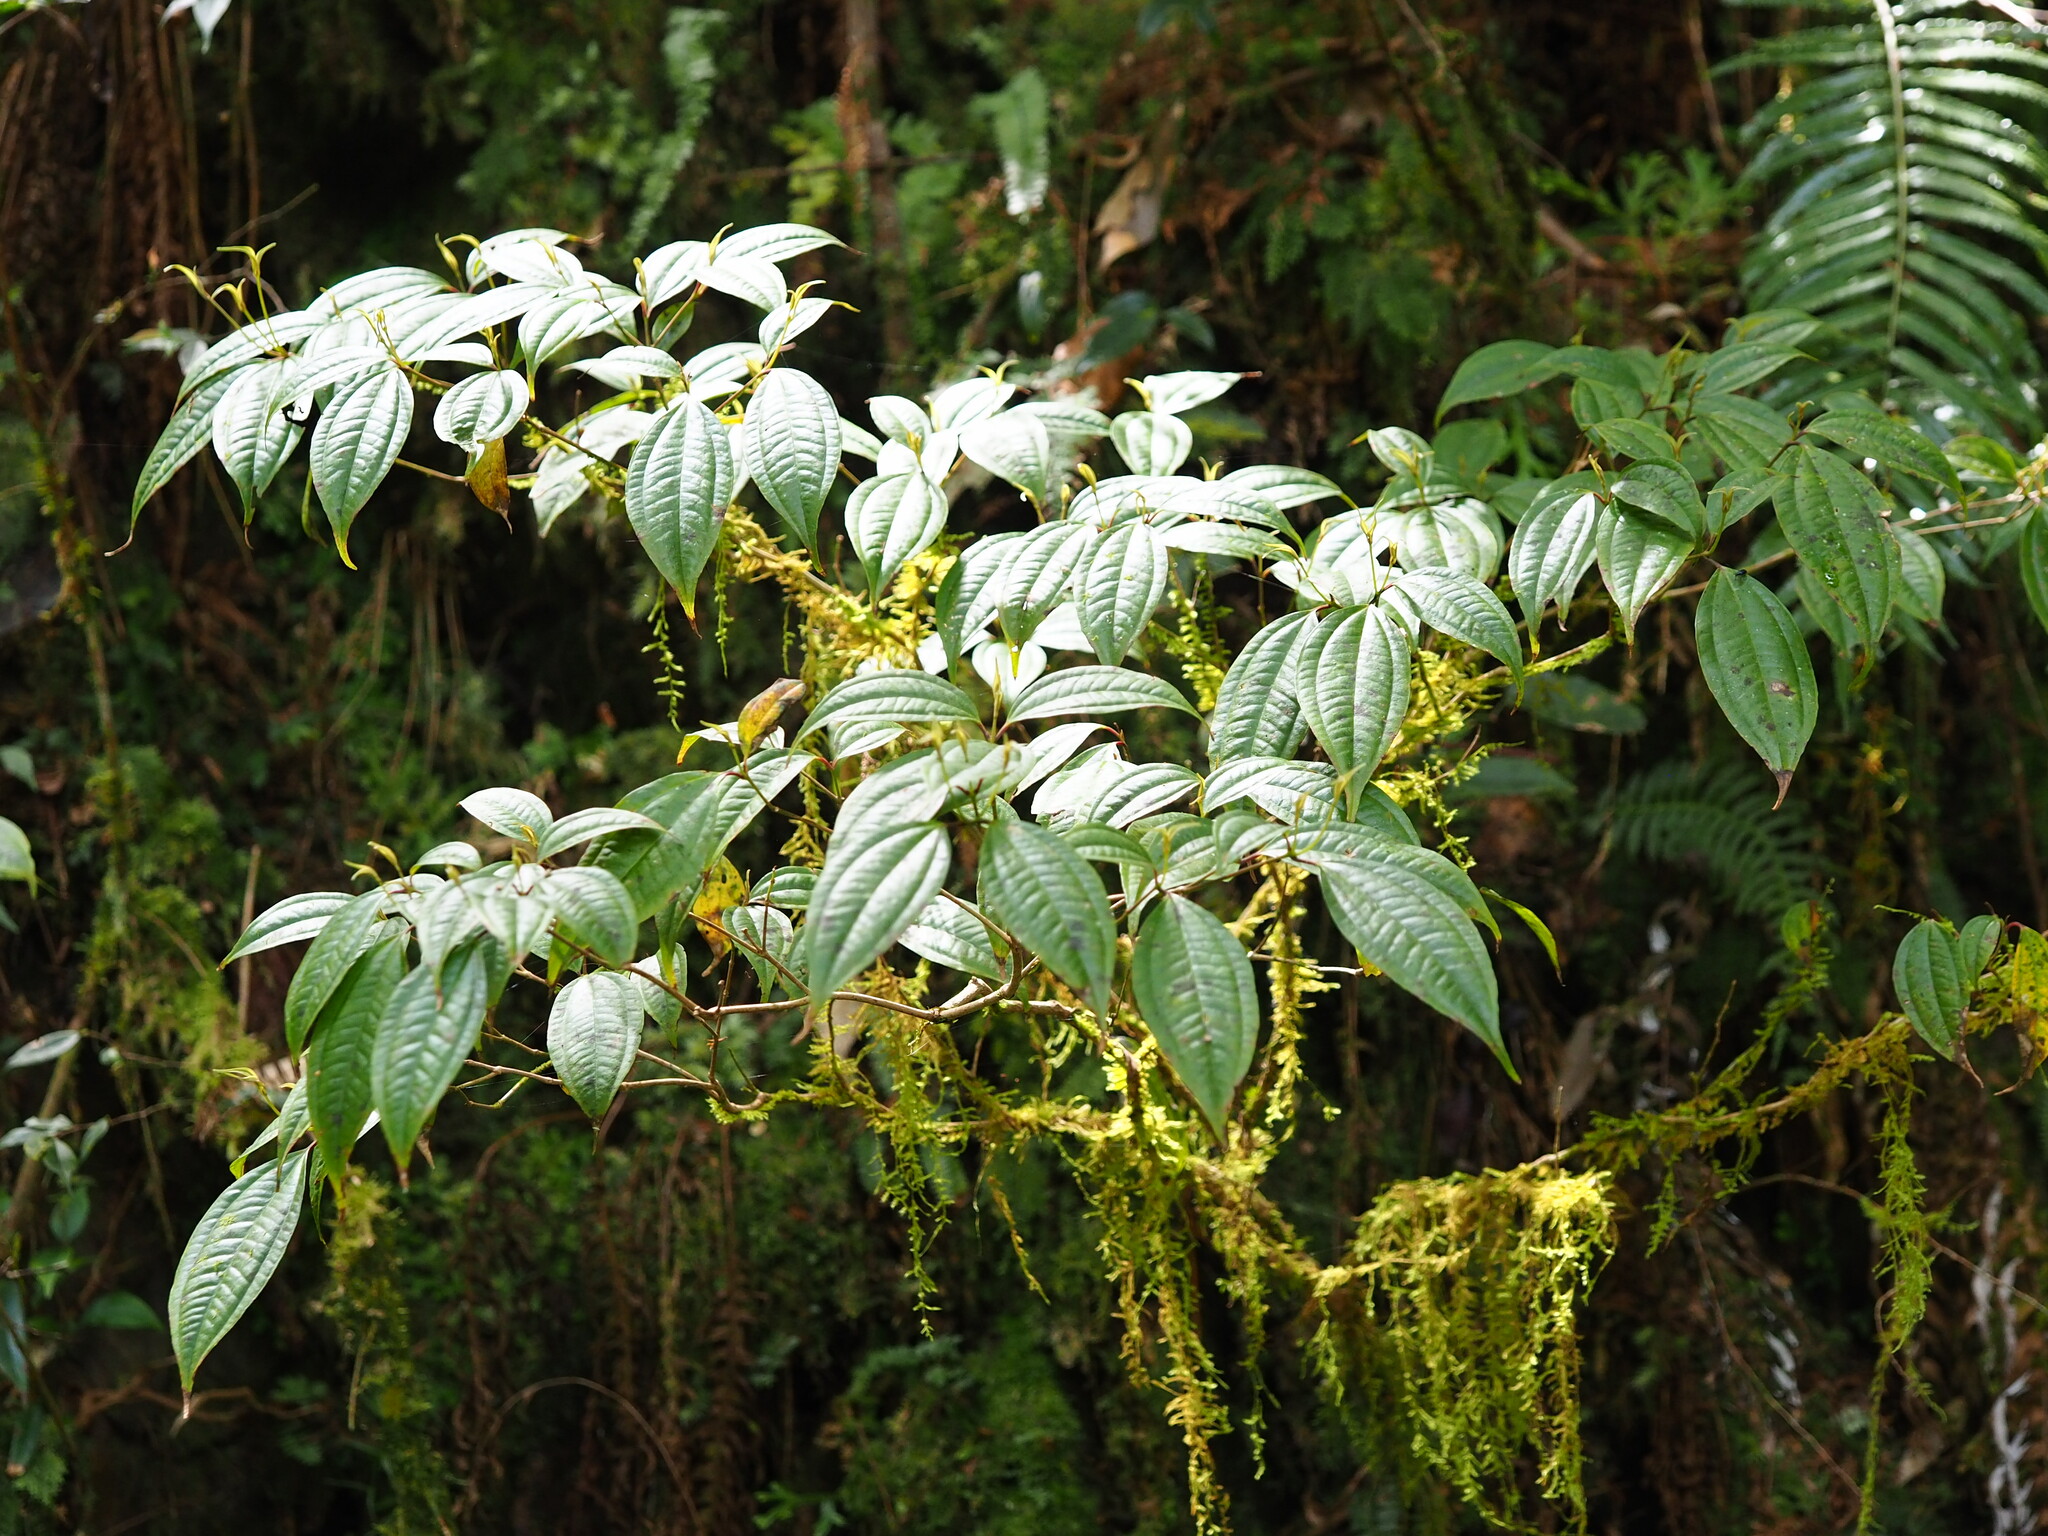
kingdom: Plantae
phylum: Tracheophyta
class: Magnoliopsida
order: Myrtales
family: Melastomataceae
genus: Barthea
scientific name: Barthea barthei
